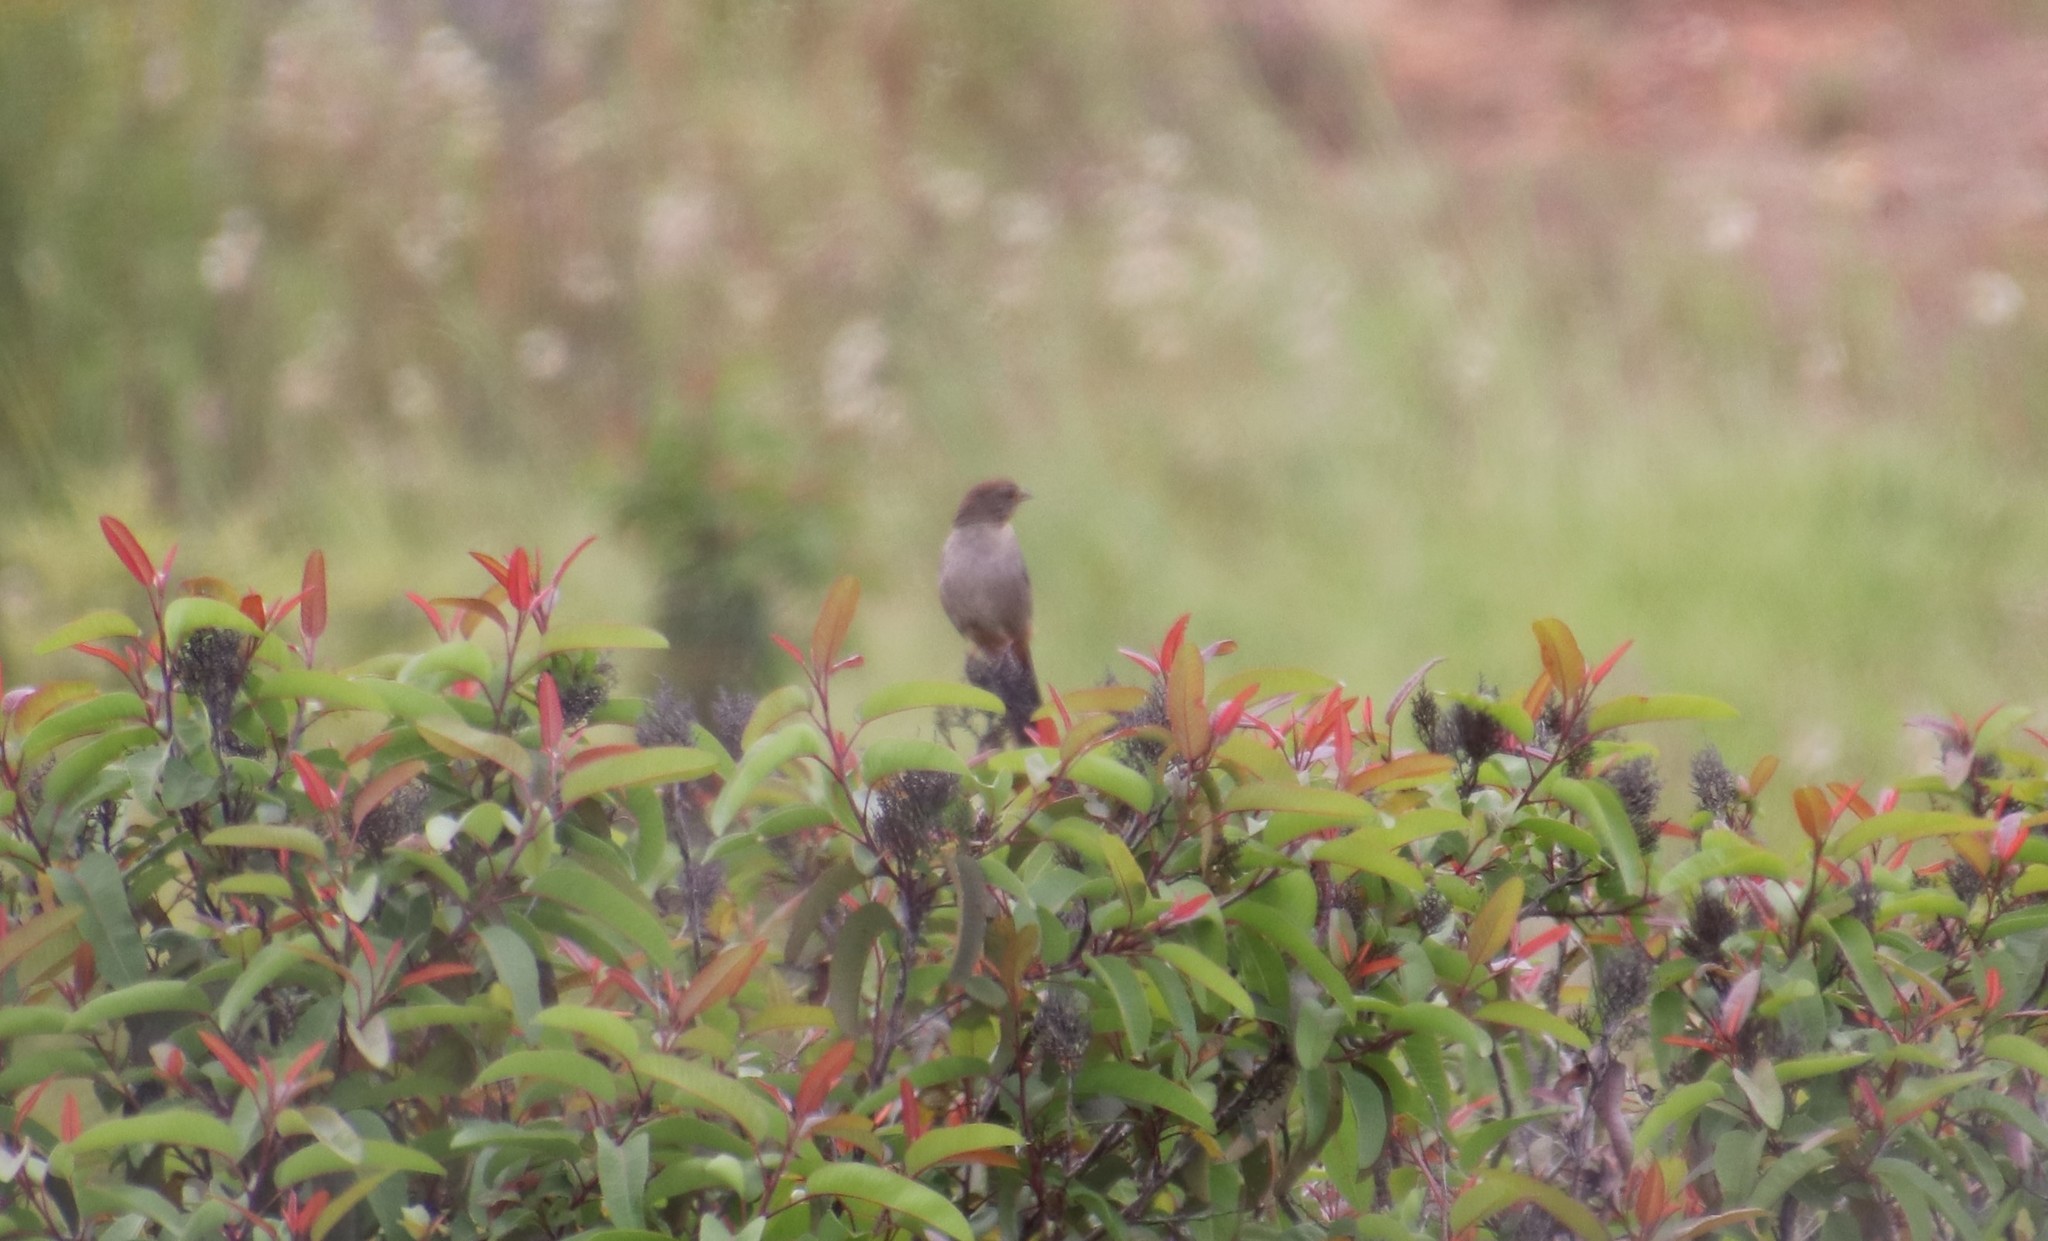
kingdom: Animalia
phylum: Chordata
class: Aves
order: Passeriformes
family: Passerellidae
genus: Melozone
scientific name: Melozone crissalis
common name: California towhee
